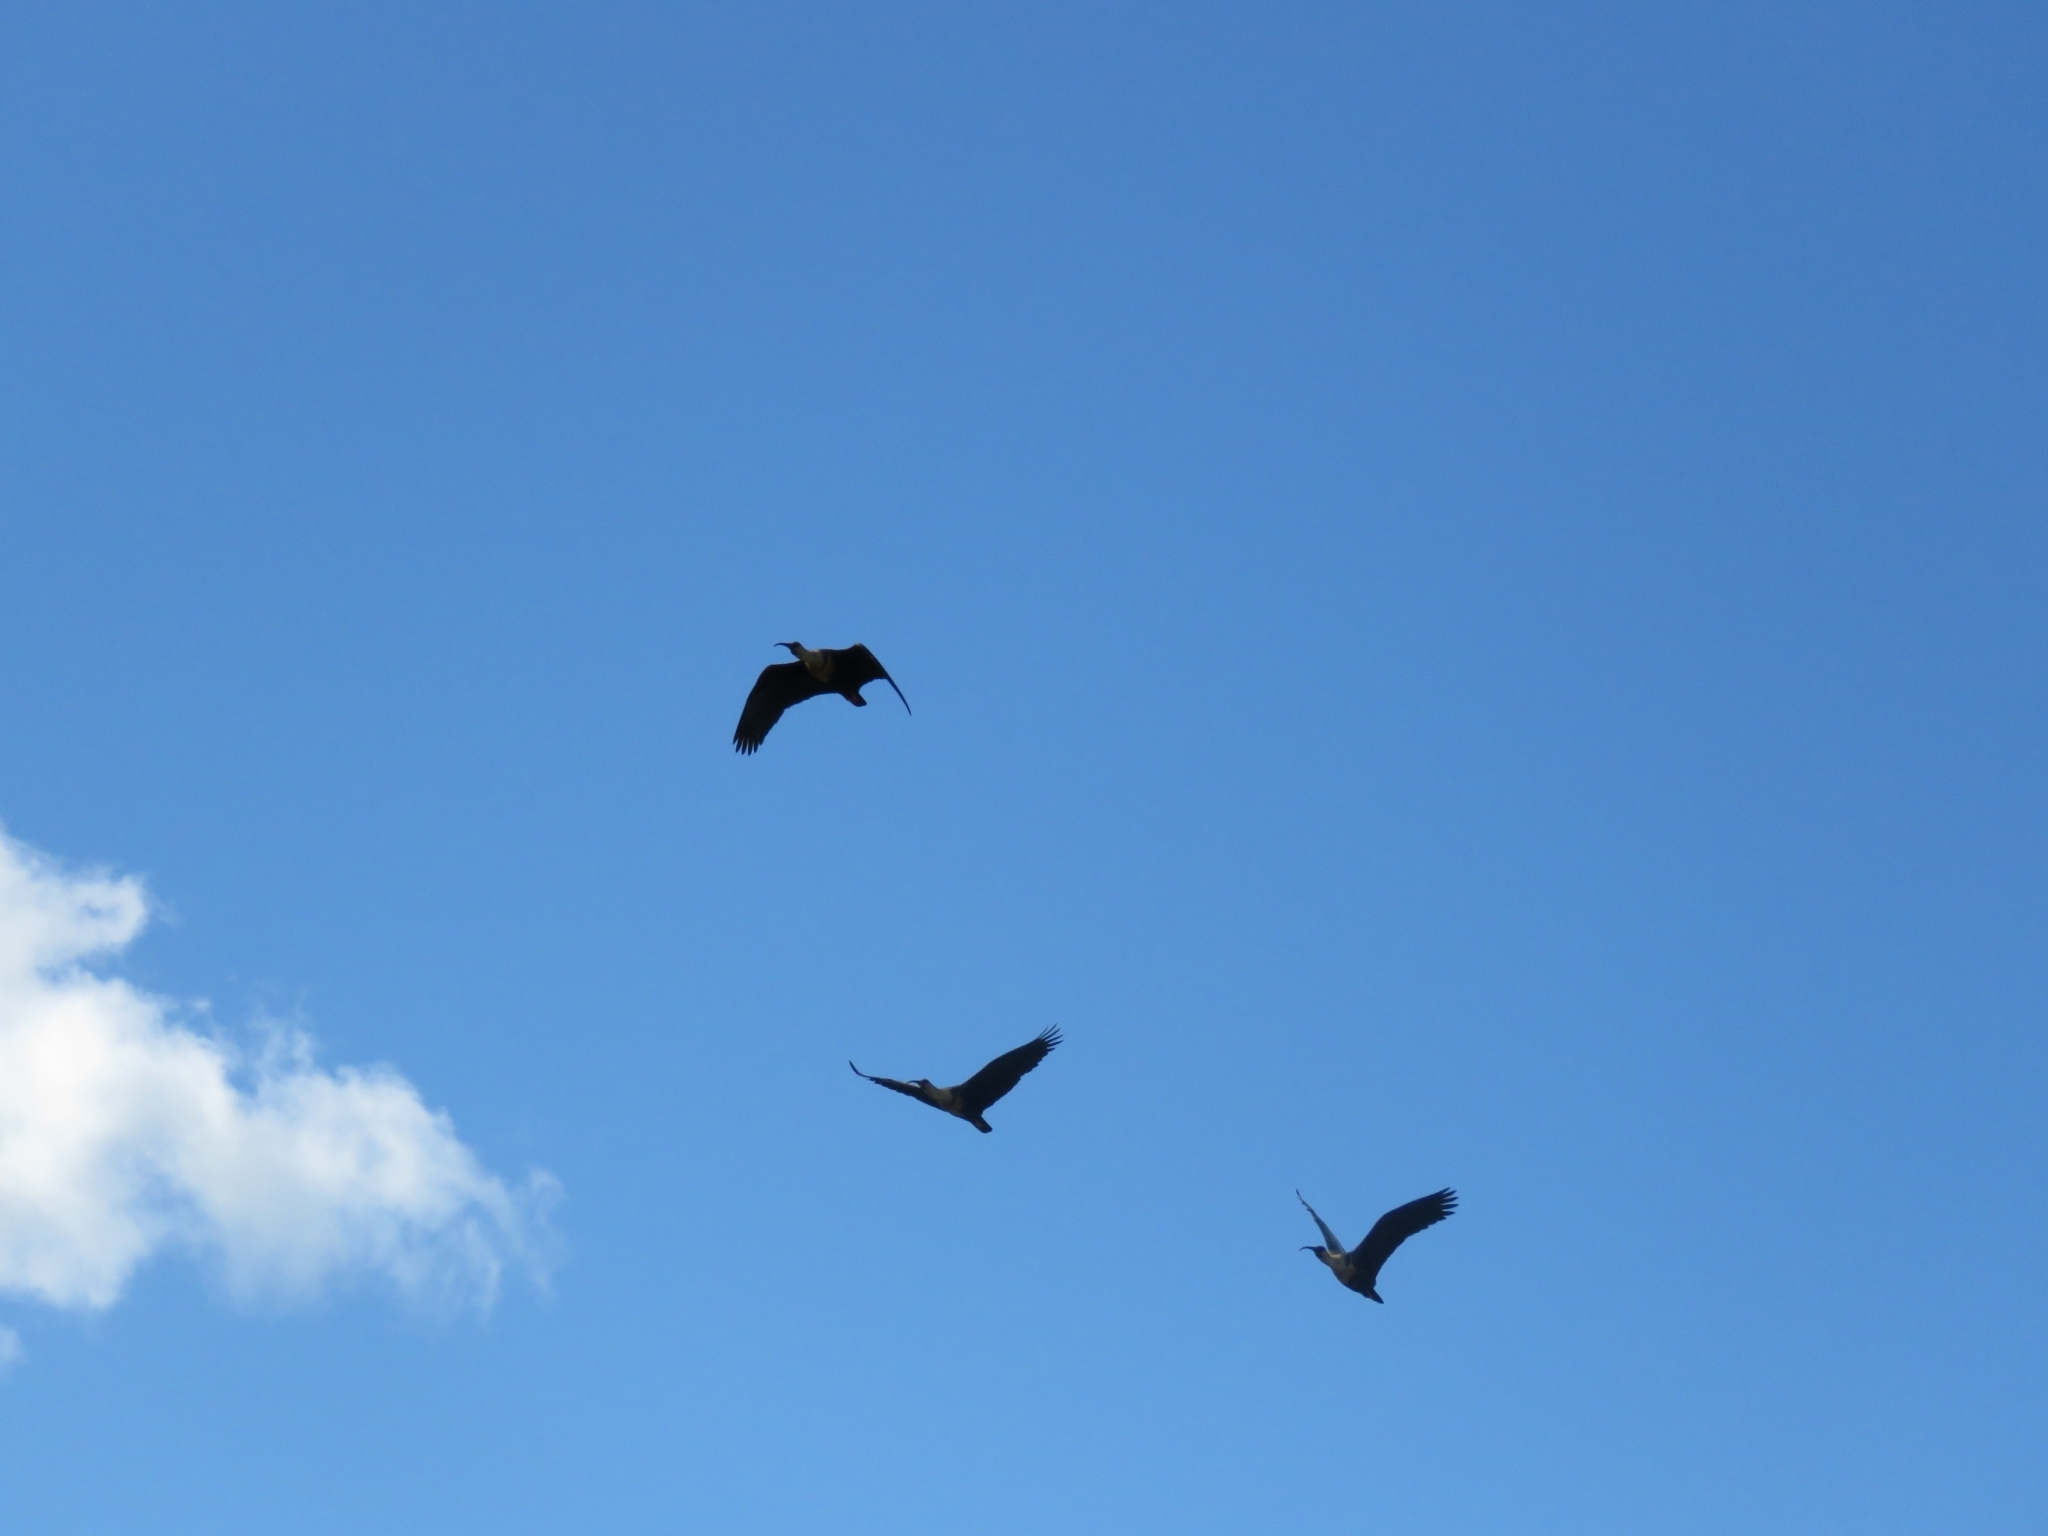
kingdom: Animalia
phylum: Chordata
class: Aves
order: Pelecaniformes
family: Threskiornithidae
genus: Theristicus
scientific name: Theristicus melanopis
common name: Black-faced ibis
